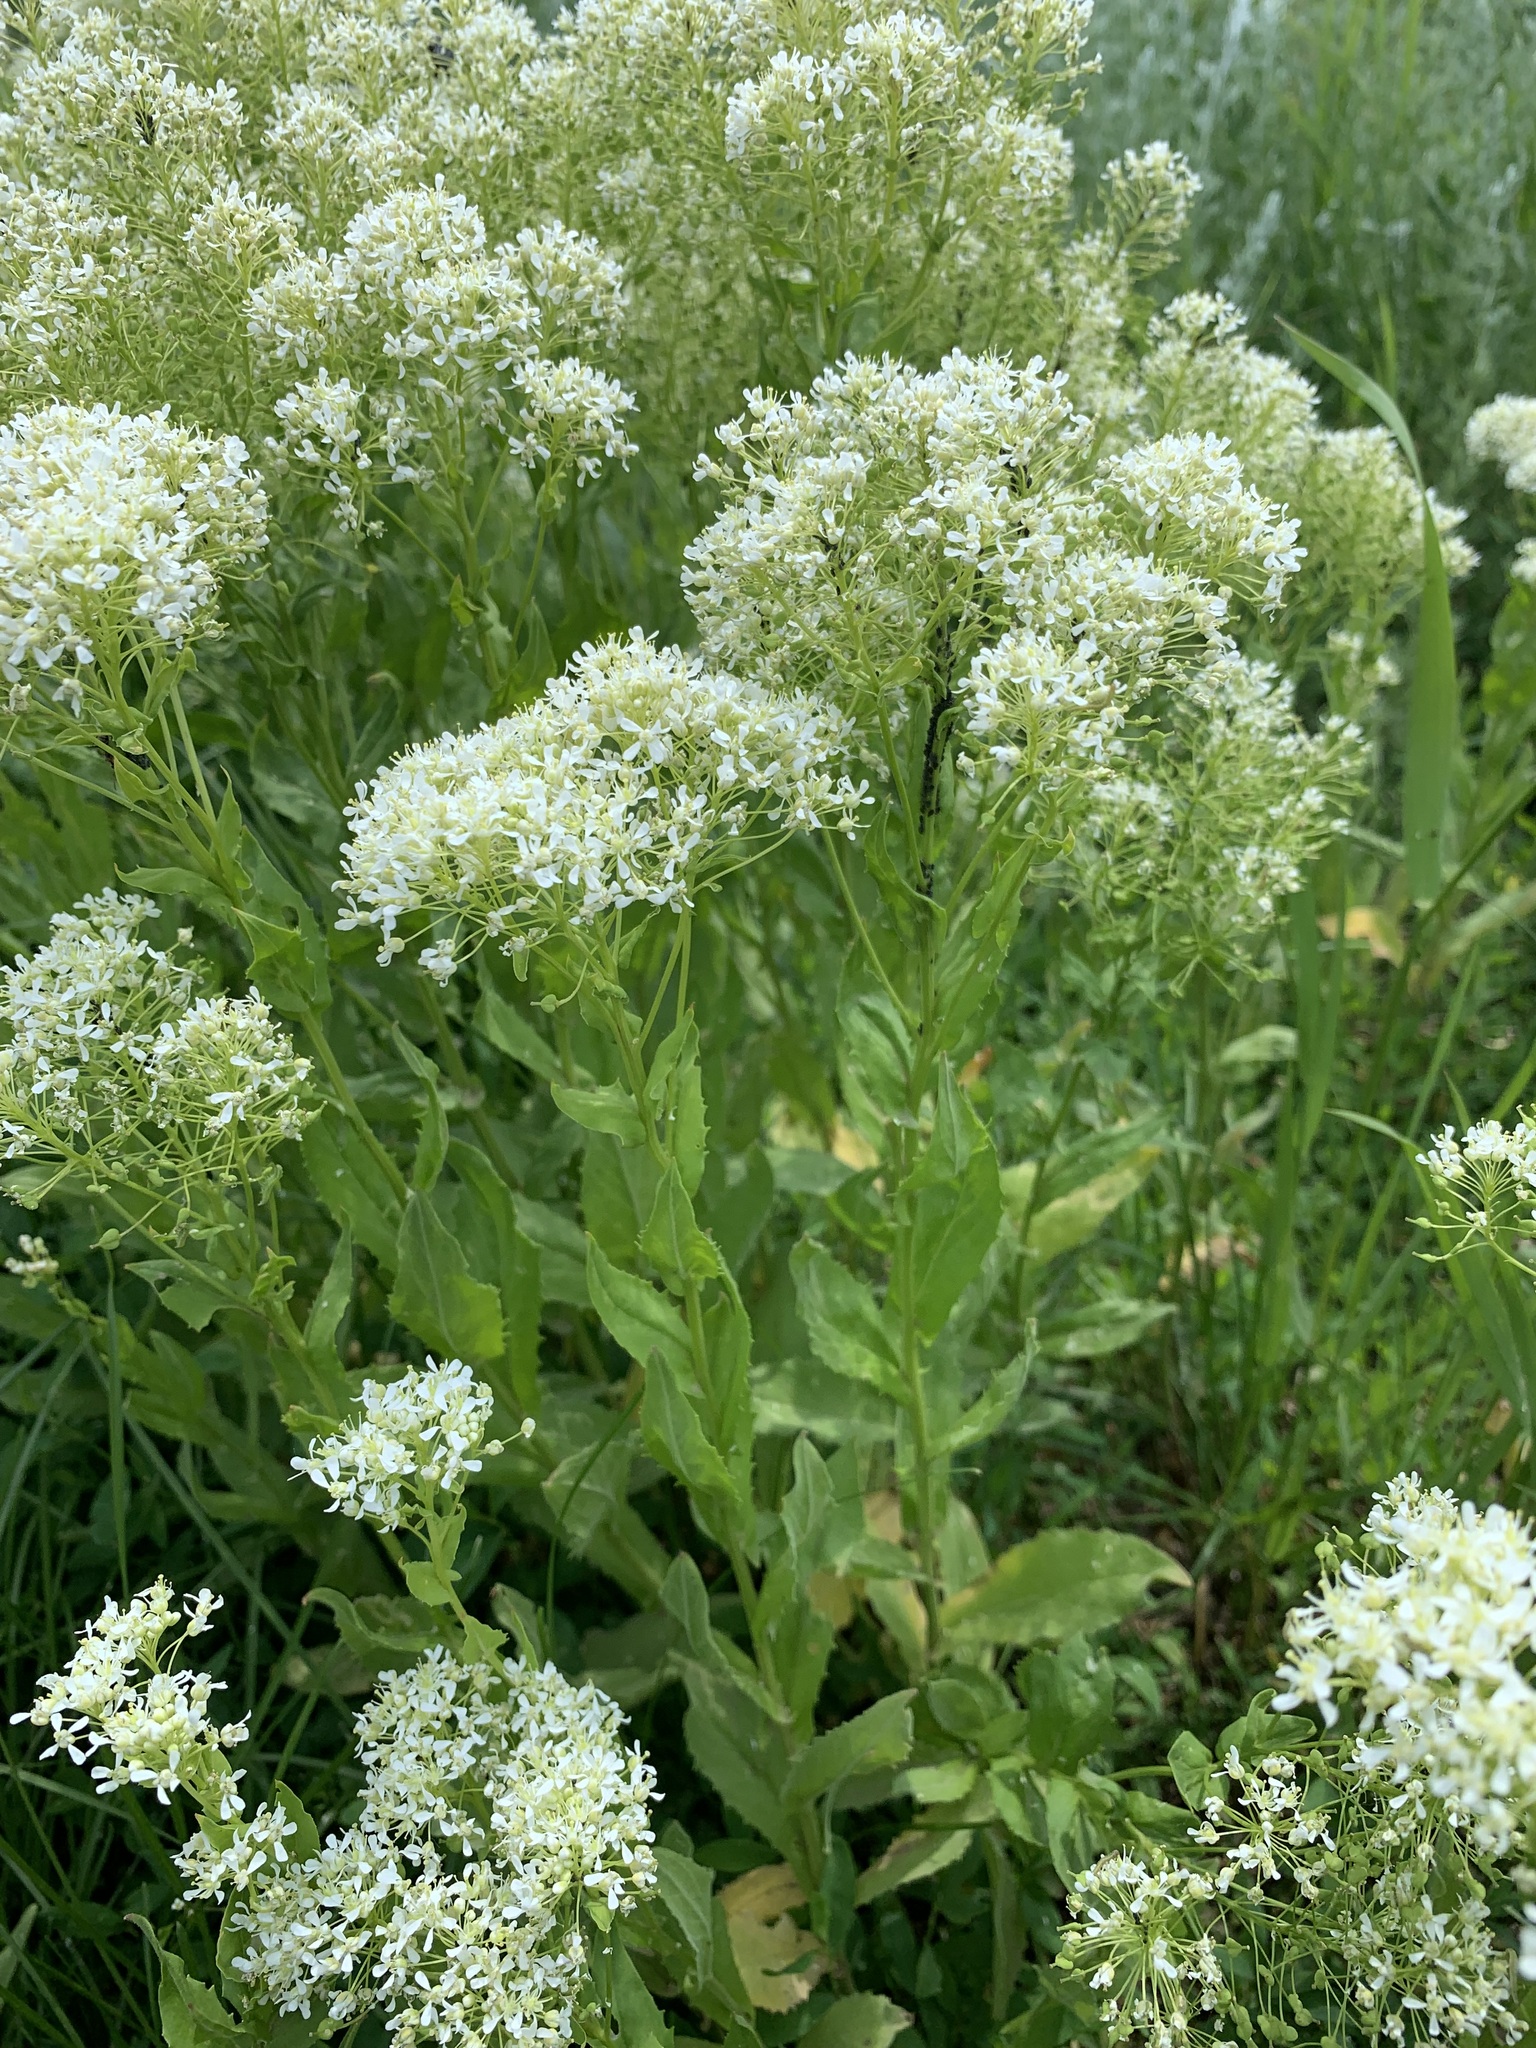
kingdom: Plantae
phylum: Tracheophyta
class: Magnoliopsida
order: Brassicales
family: Brassicaceae
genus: Lepidium
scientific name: Lepidium draba
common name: Hoary cress
